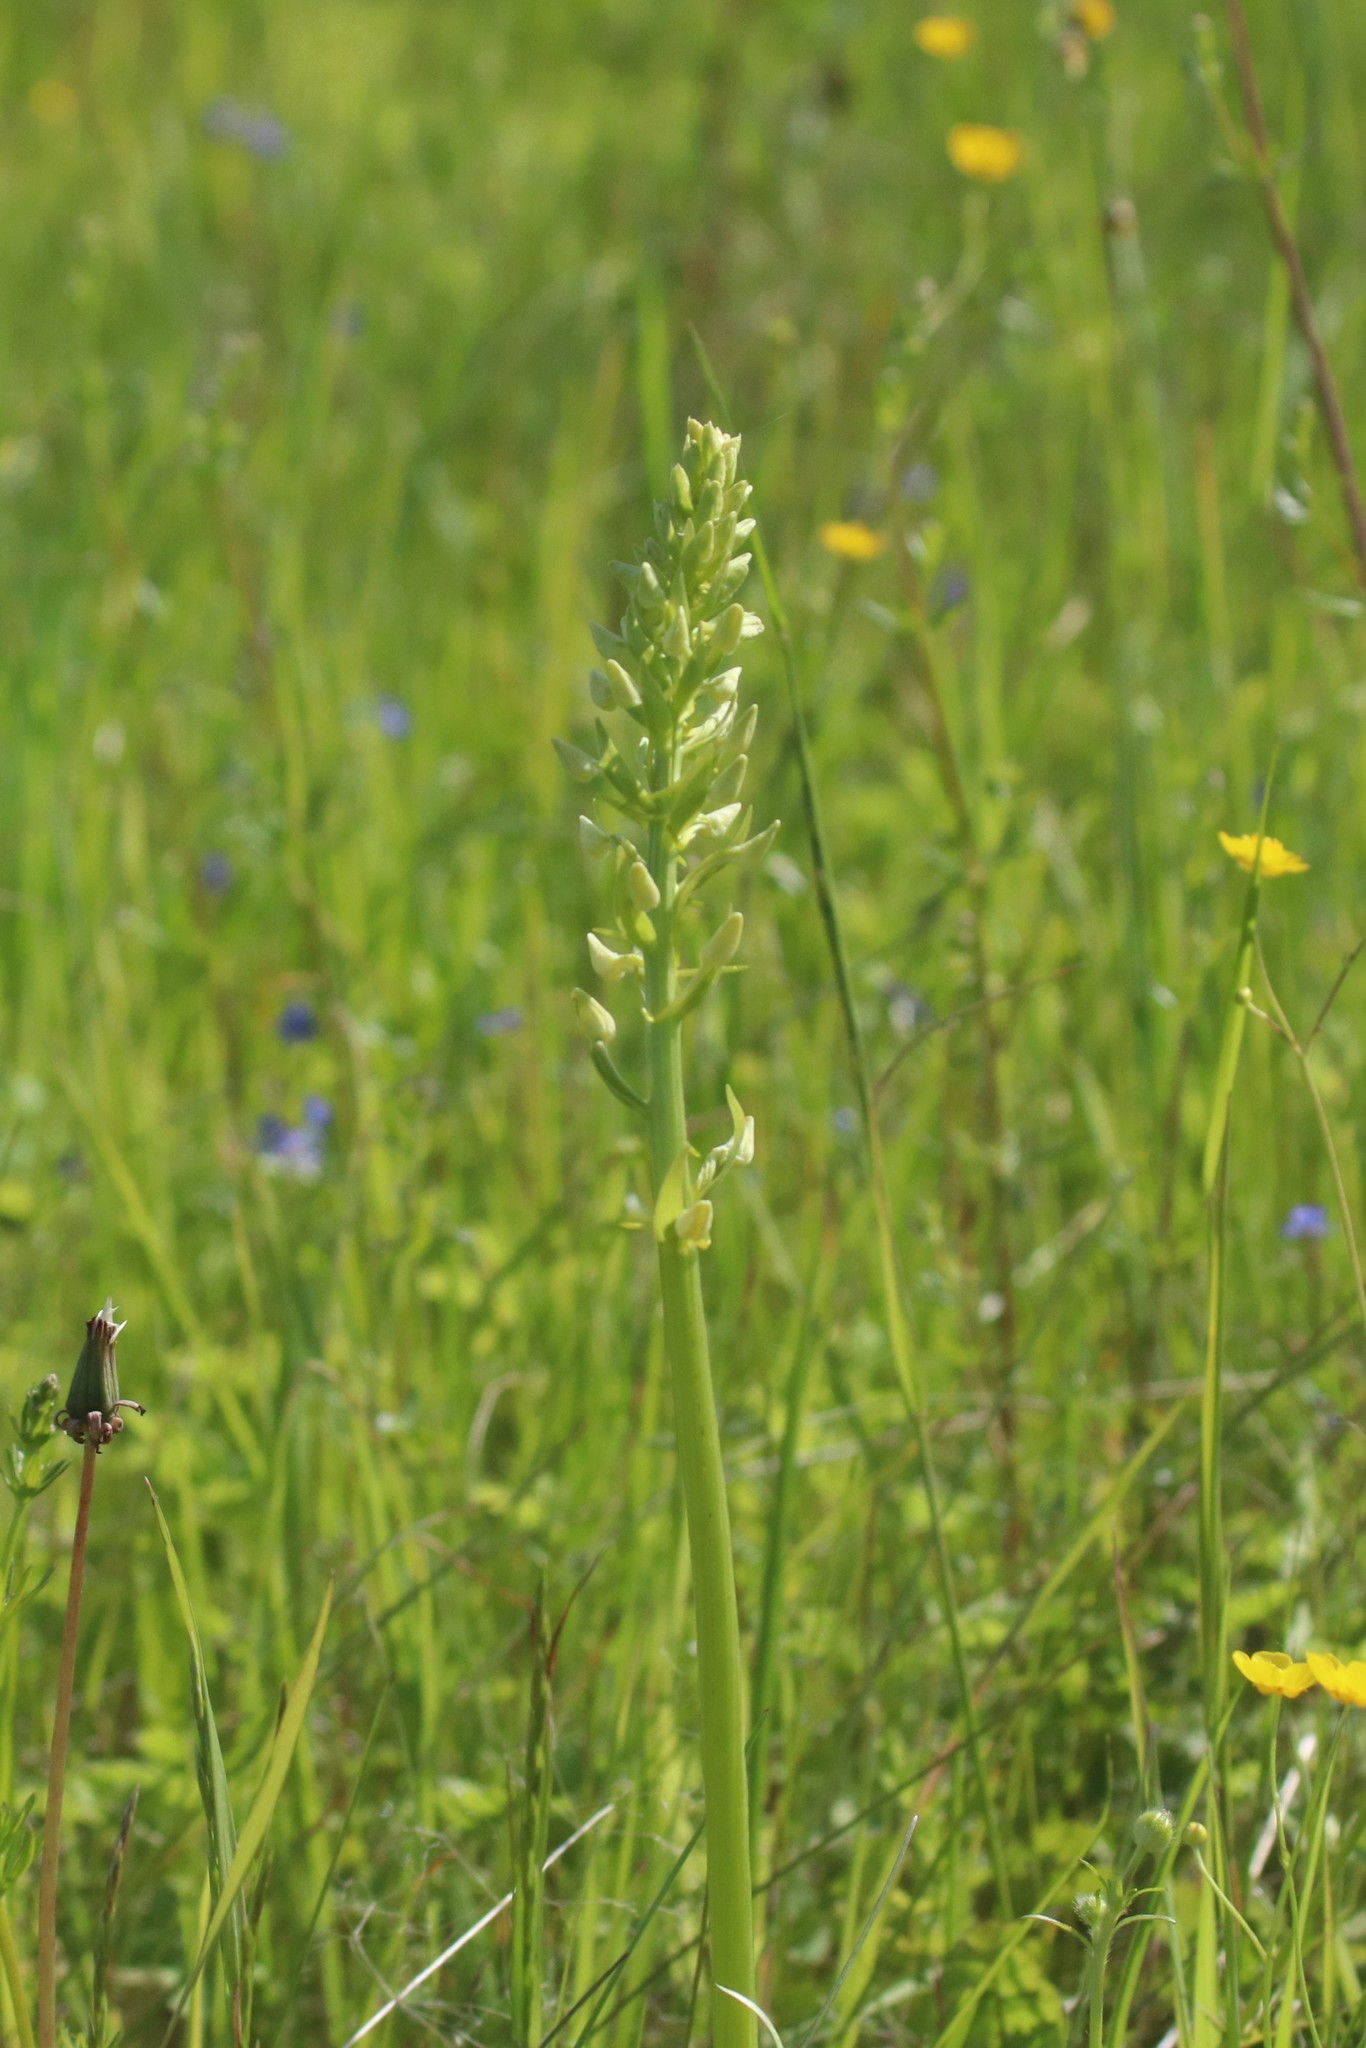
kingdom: Plantae
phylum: Tracheophyta
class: Liliopsida
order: Asparagales
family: Orchidaceae
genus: Platanthera
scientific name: Platanthera bifolia
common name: Lesser butterfly-orchid
